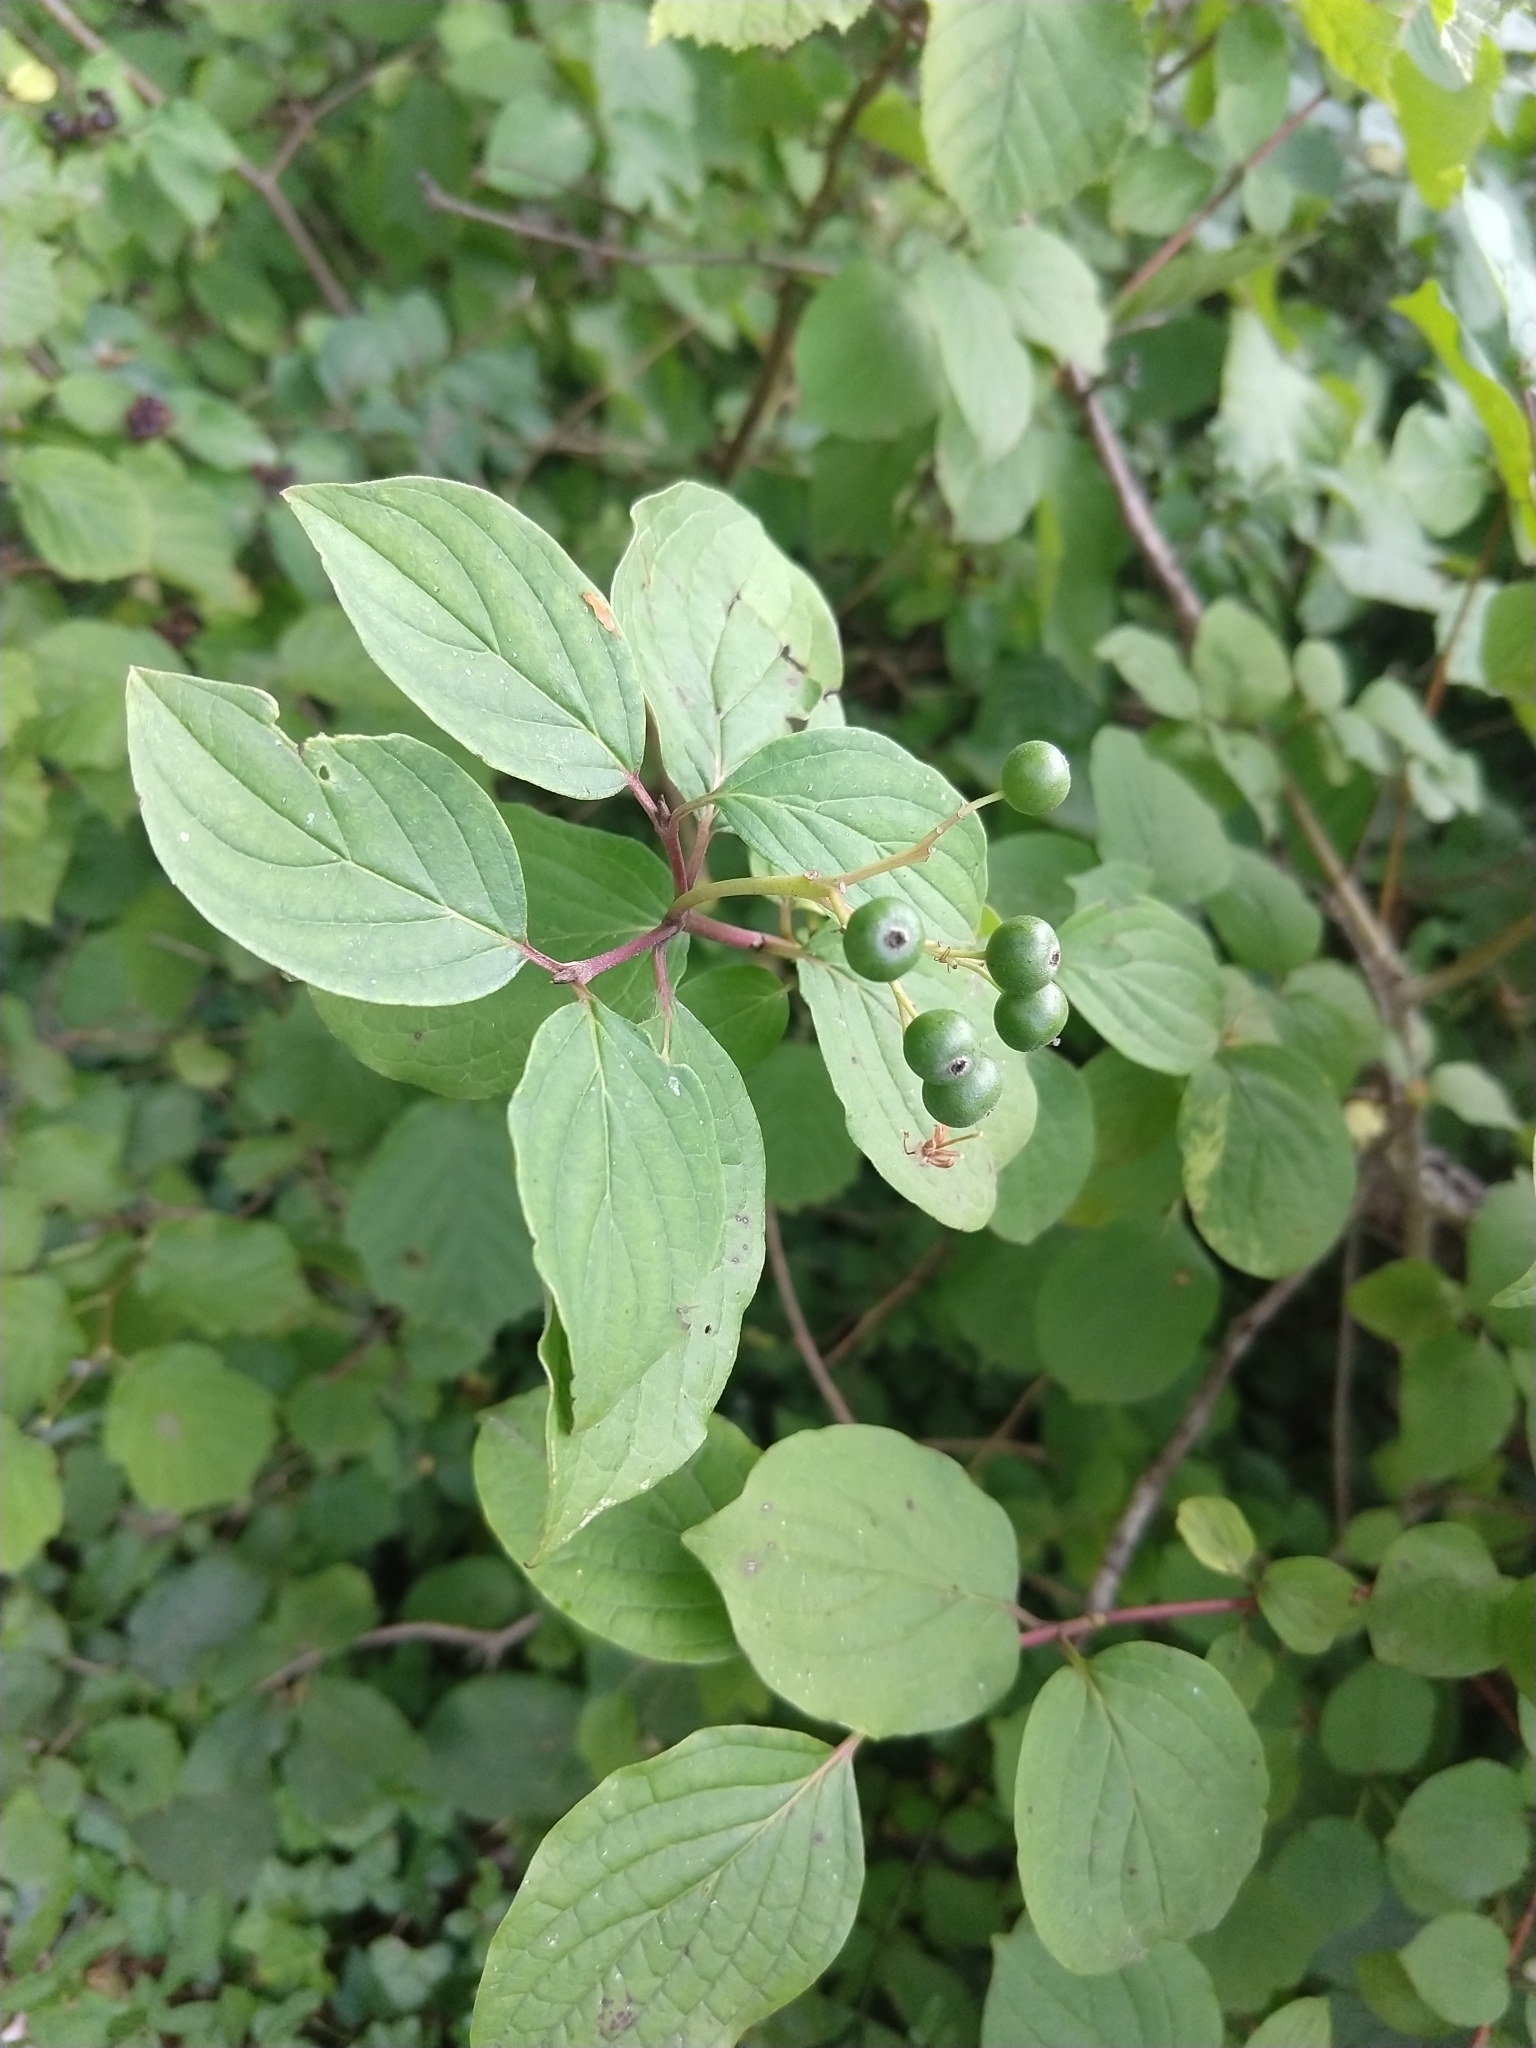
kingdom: Plantae
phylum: Tracheophyta
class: Magnoliopsida
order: Cornales
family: Cornaceae
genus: Cornus
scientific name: Cornus sanguinea
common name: Dogwood
